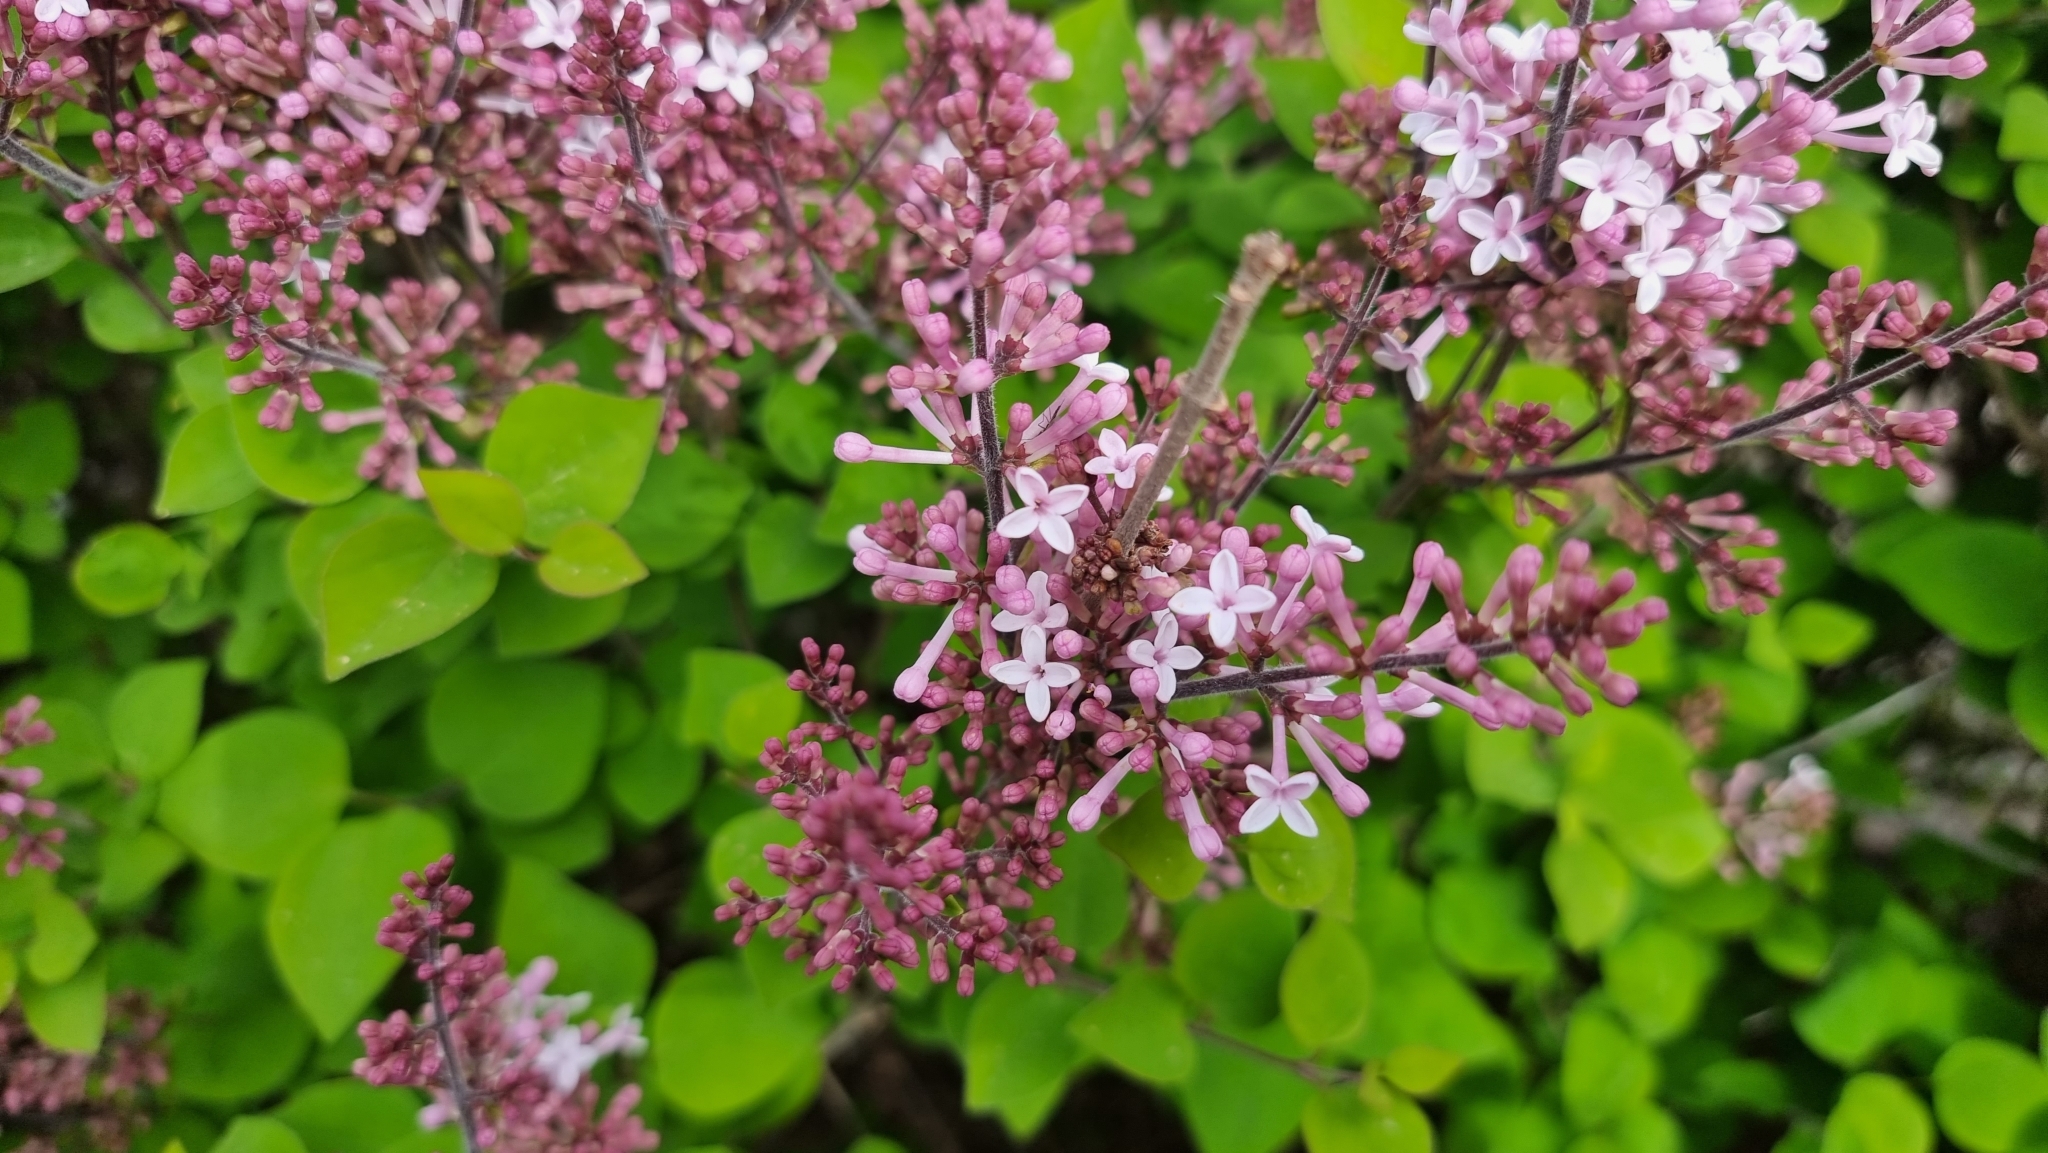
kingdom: Plantae
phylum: Tracheophyta
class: Magnoliopsida
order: Lamiales
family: Oleaceae
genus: Syringa
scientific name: Syringa pubescens
